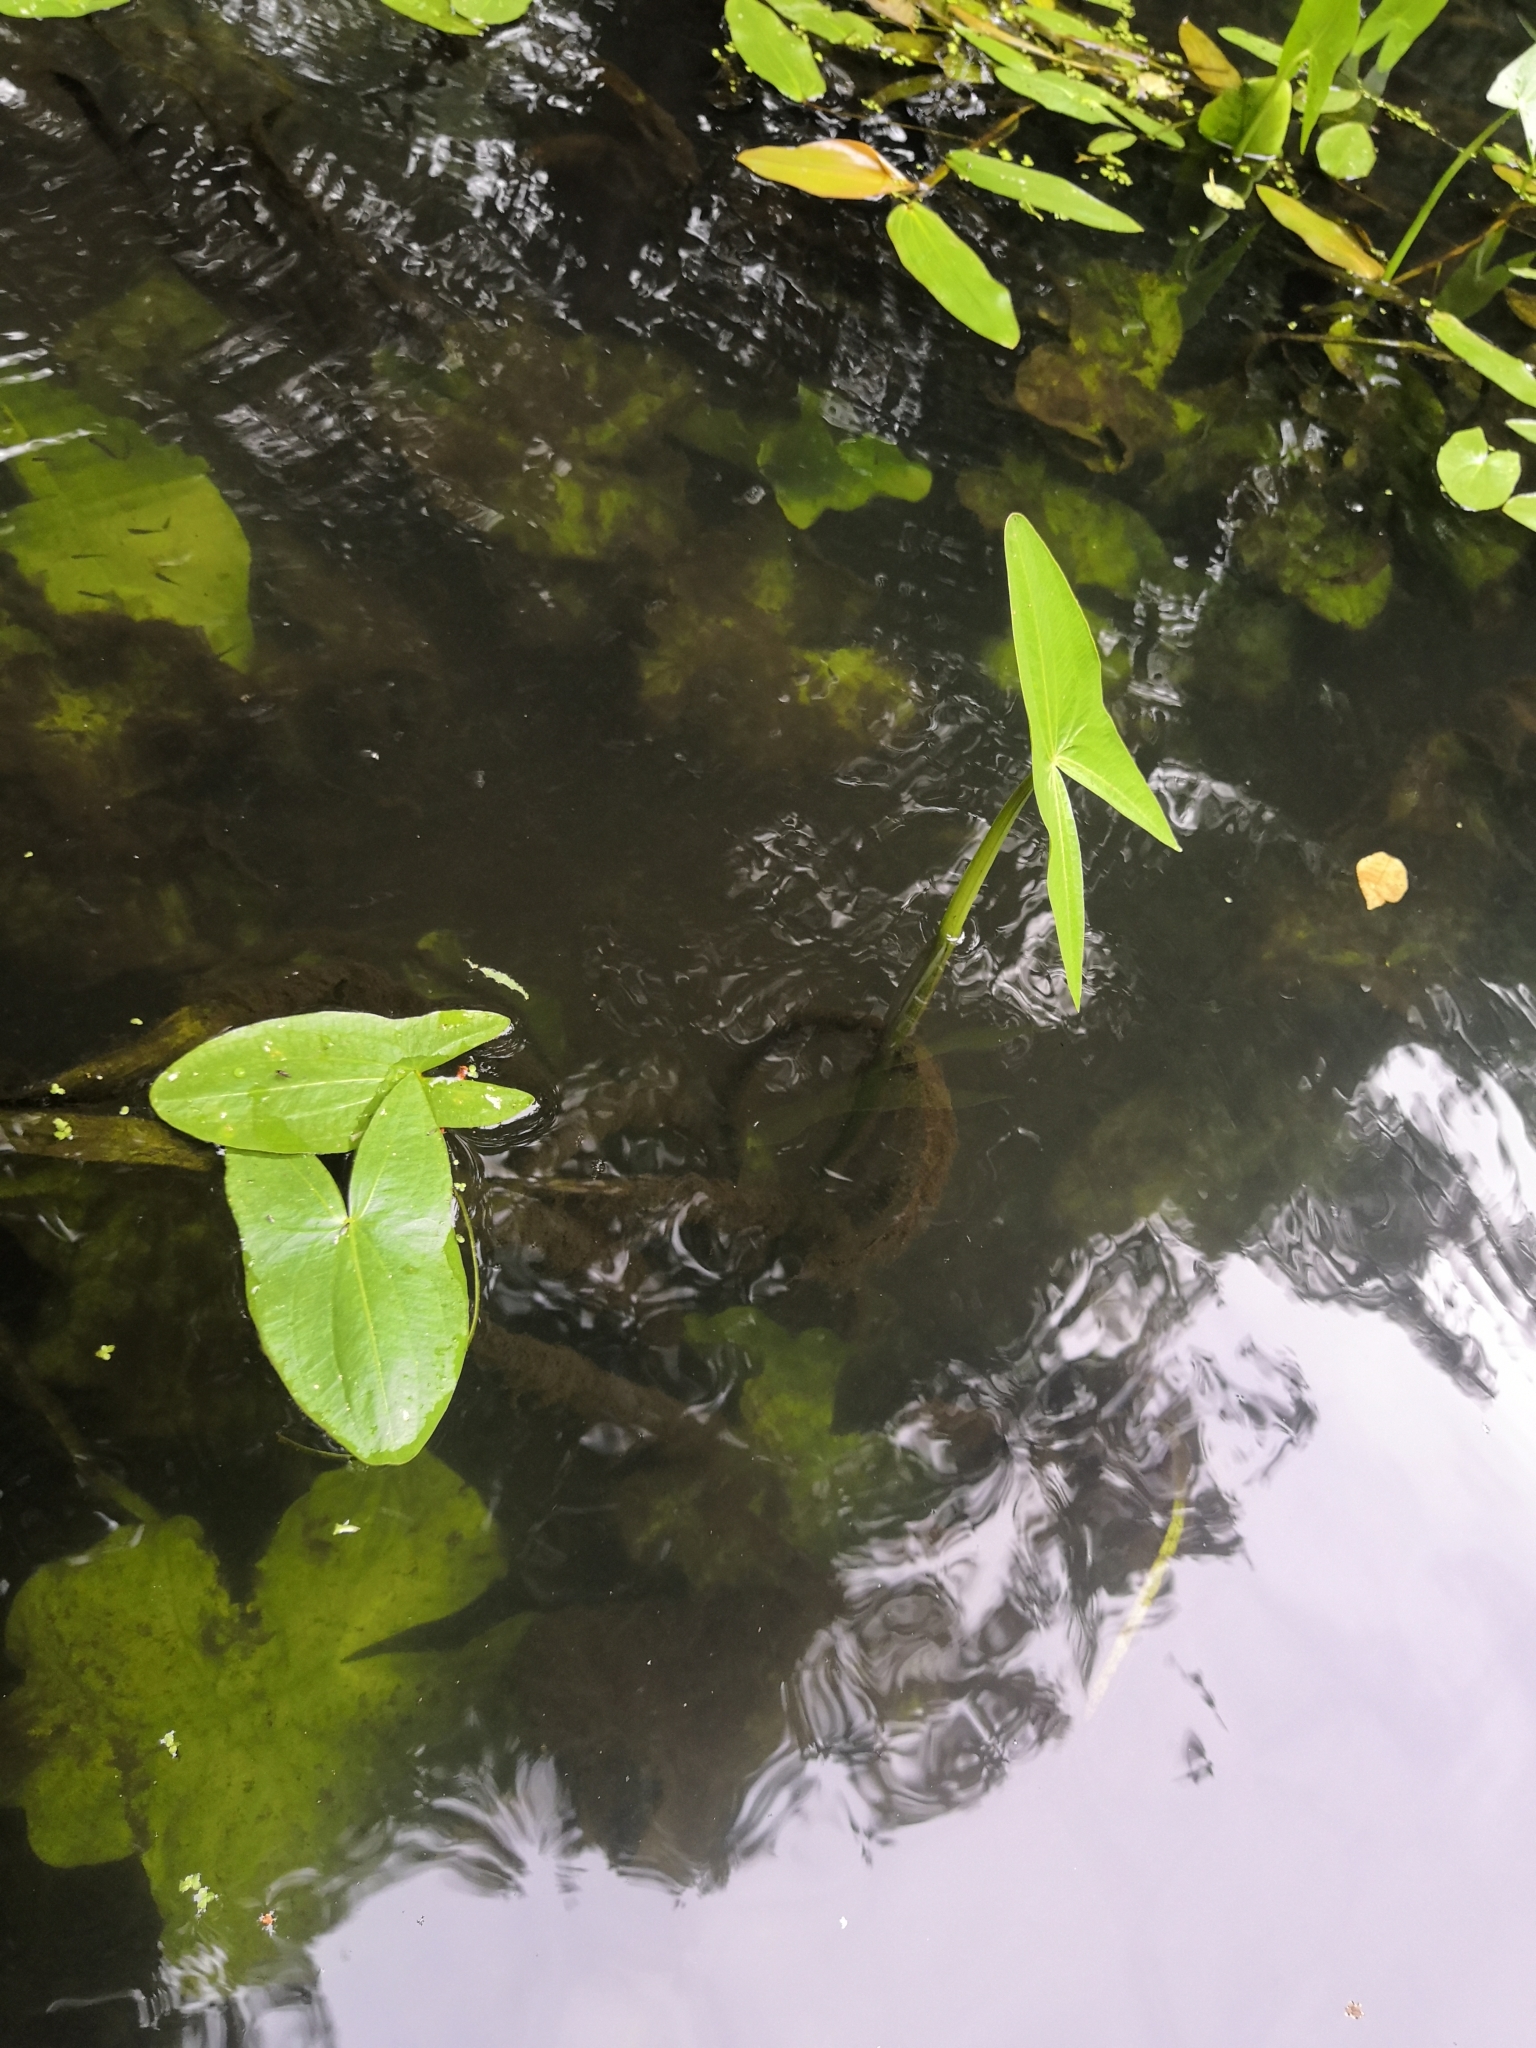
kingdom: Plantae
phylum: Tracheophyta
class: Liliopsida
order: Alismatales
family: Alismataceae
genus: Sagittaria
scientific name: Sagittaria sagittifolia
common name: Arrowhead
